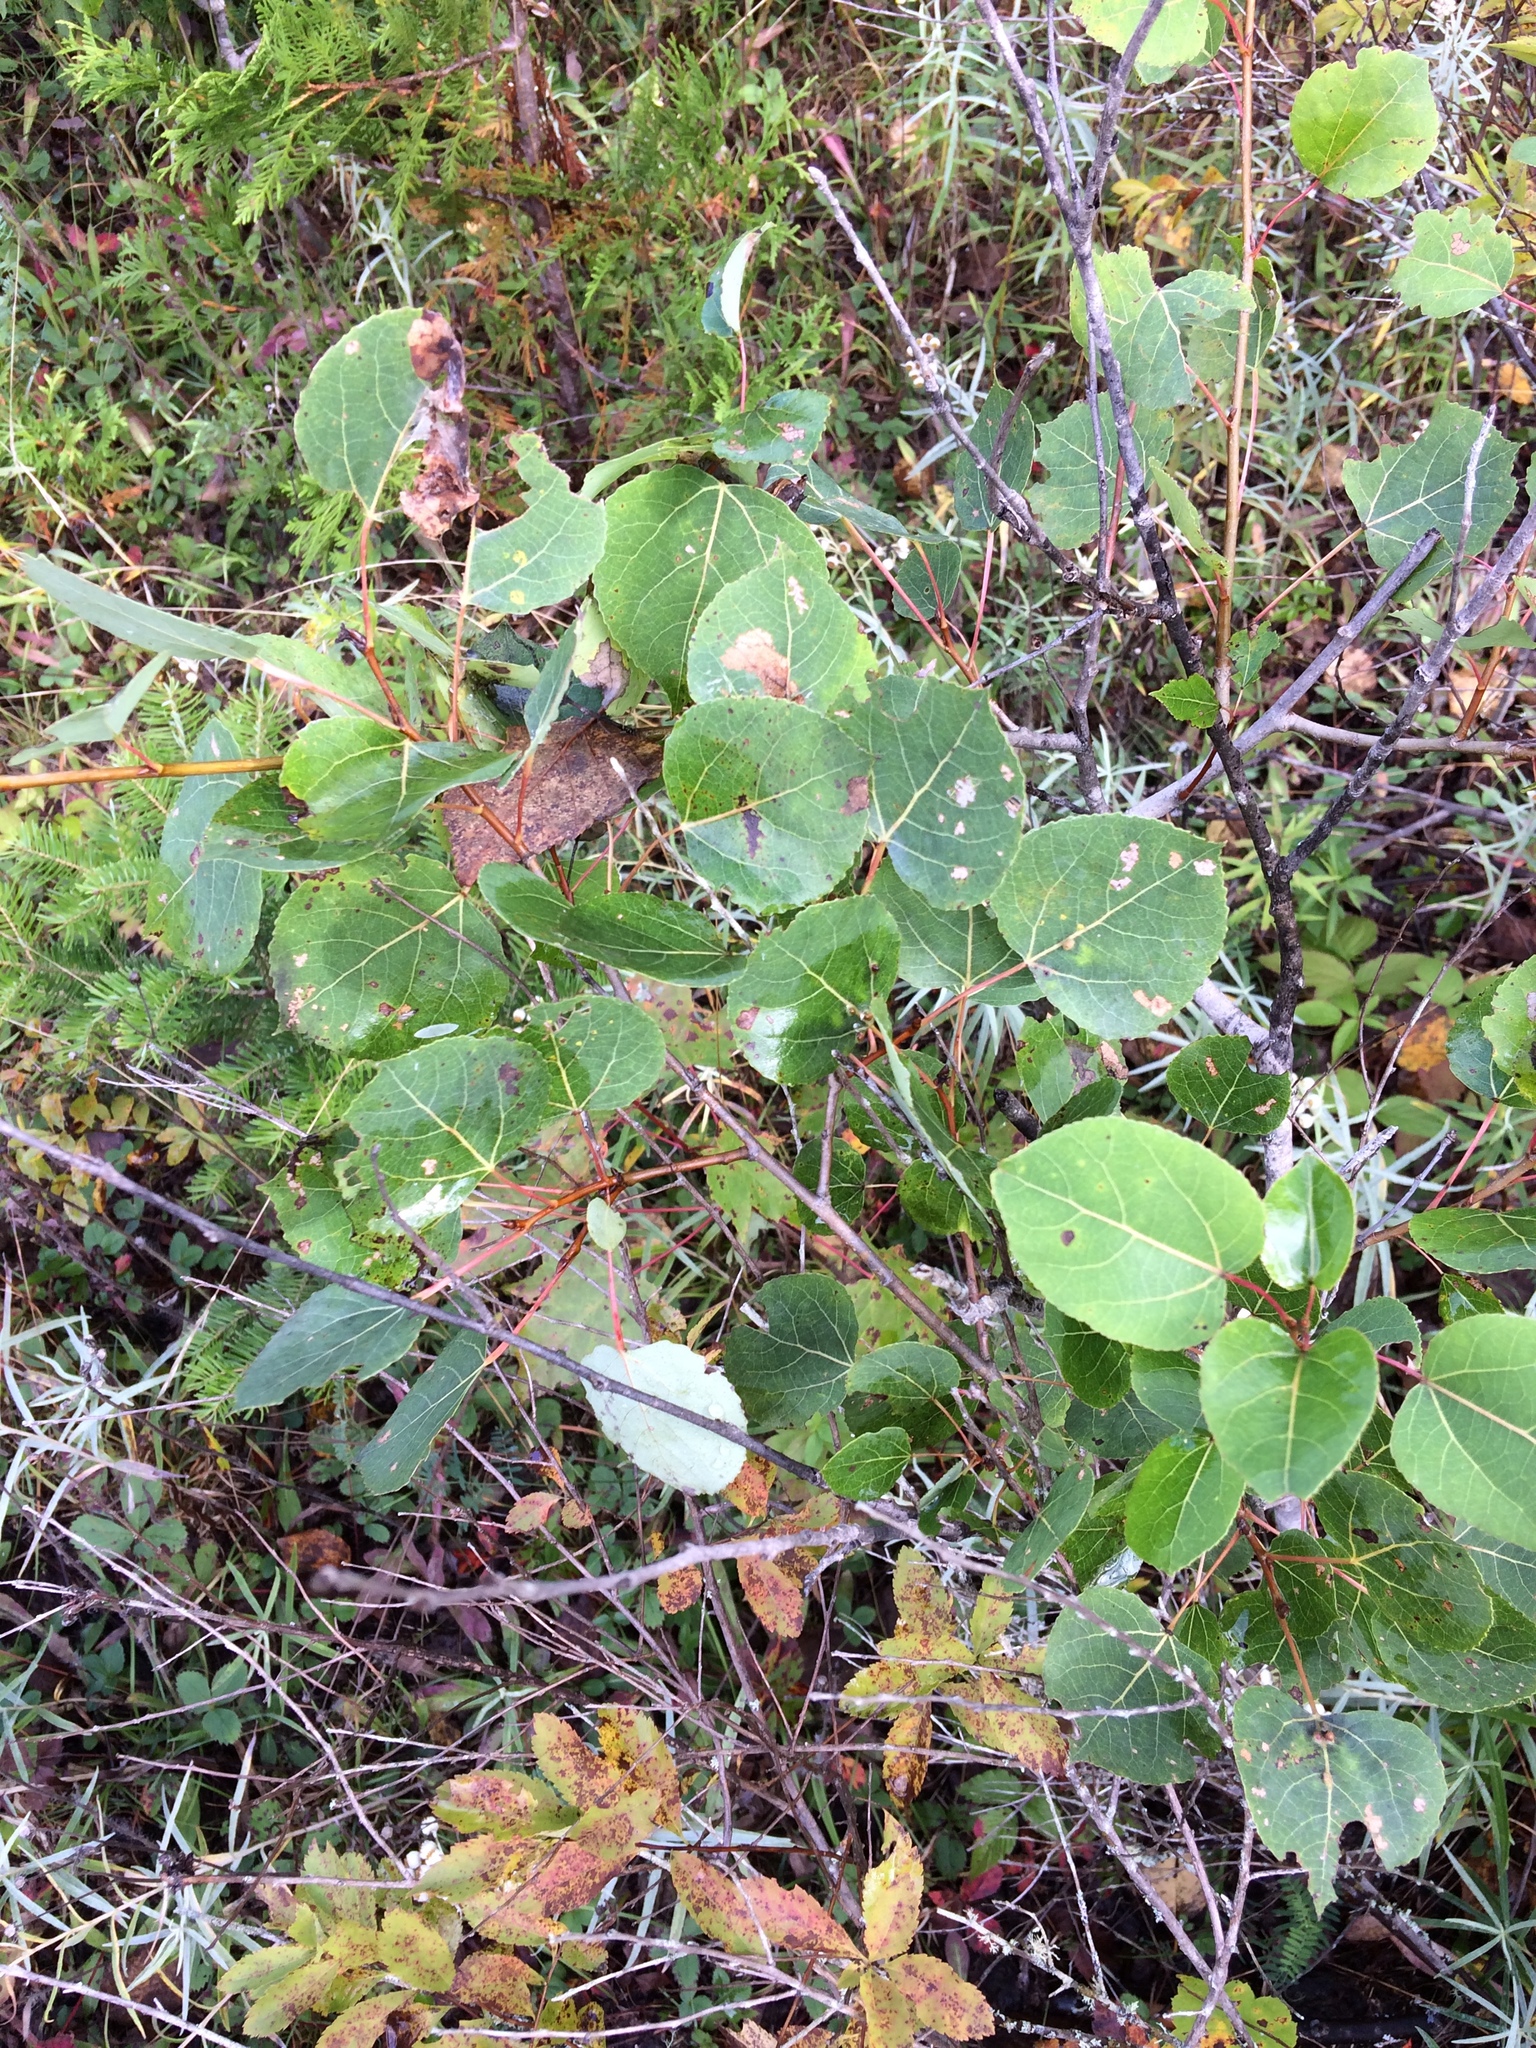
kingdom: Plantae
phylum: Tracheophyta
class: Magnoliopsida
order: Malpighiales
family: Salicaceae
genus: Populus
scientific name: Populus tremuloides
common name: Quaking aspen
